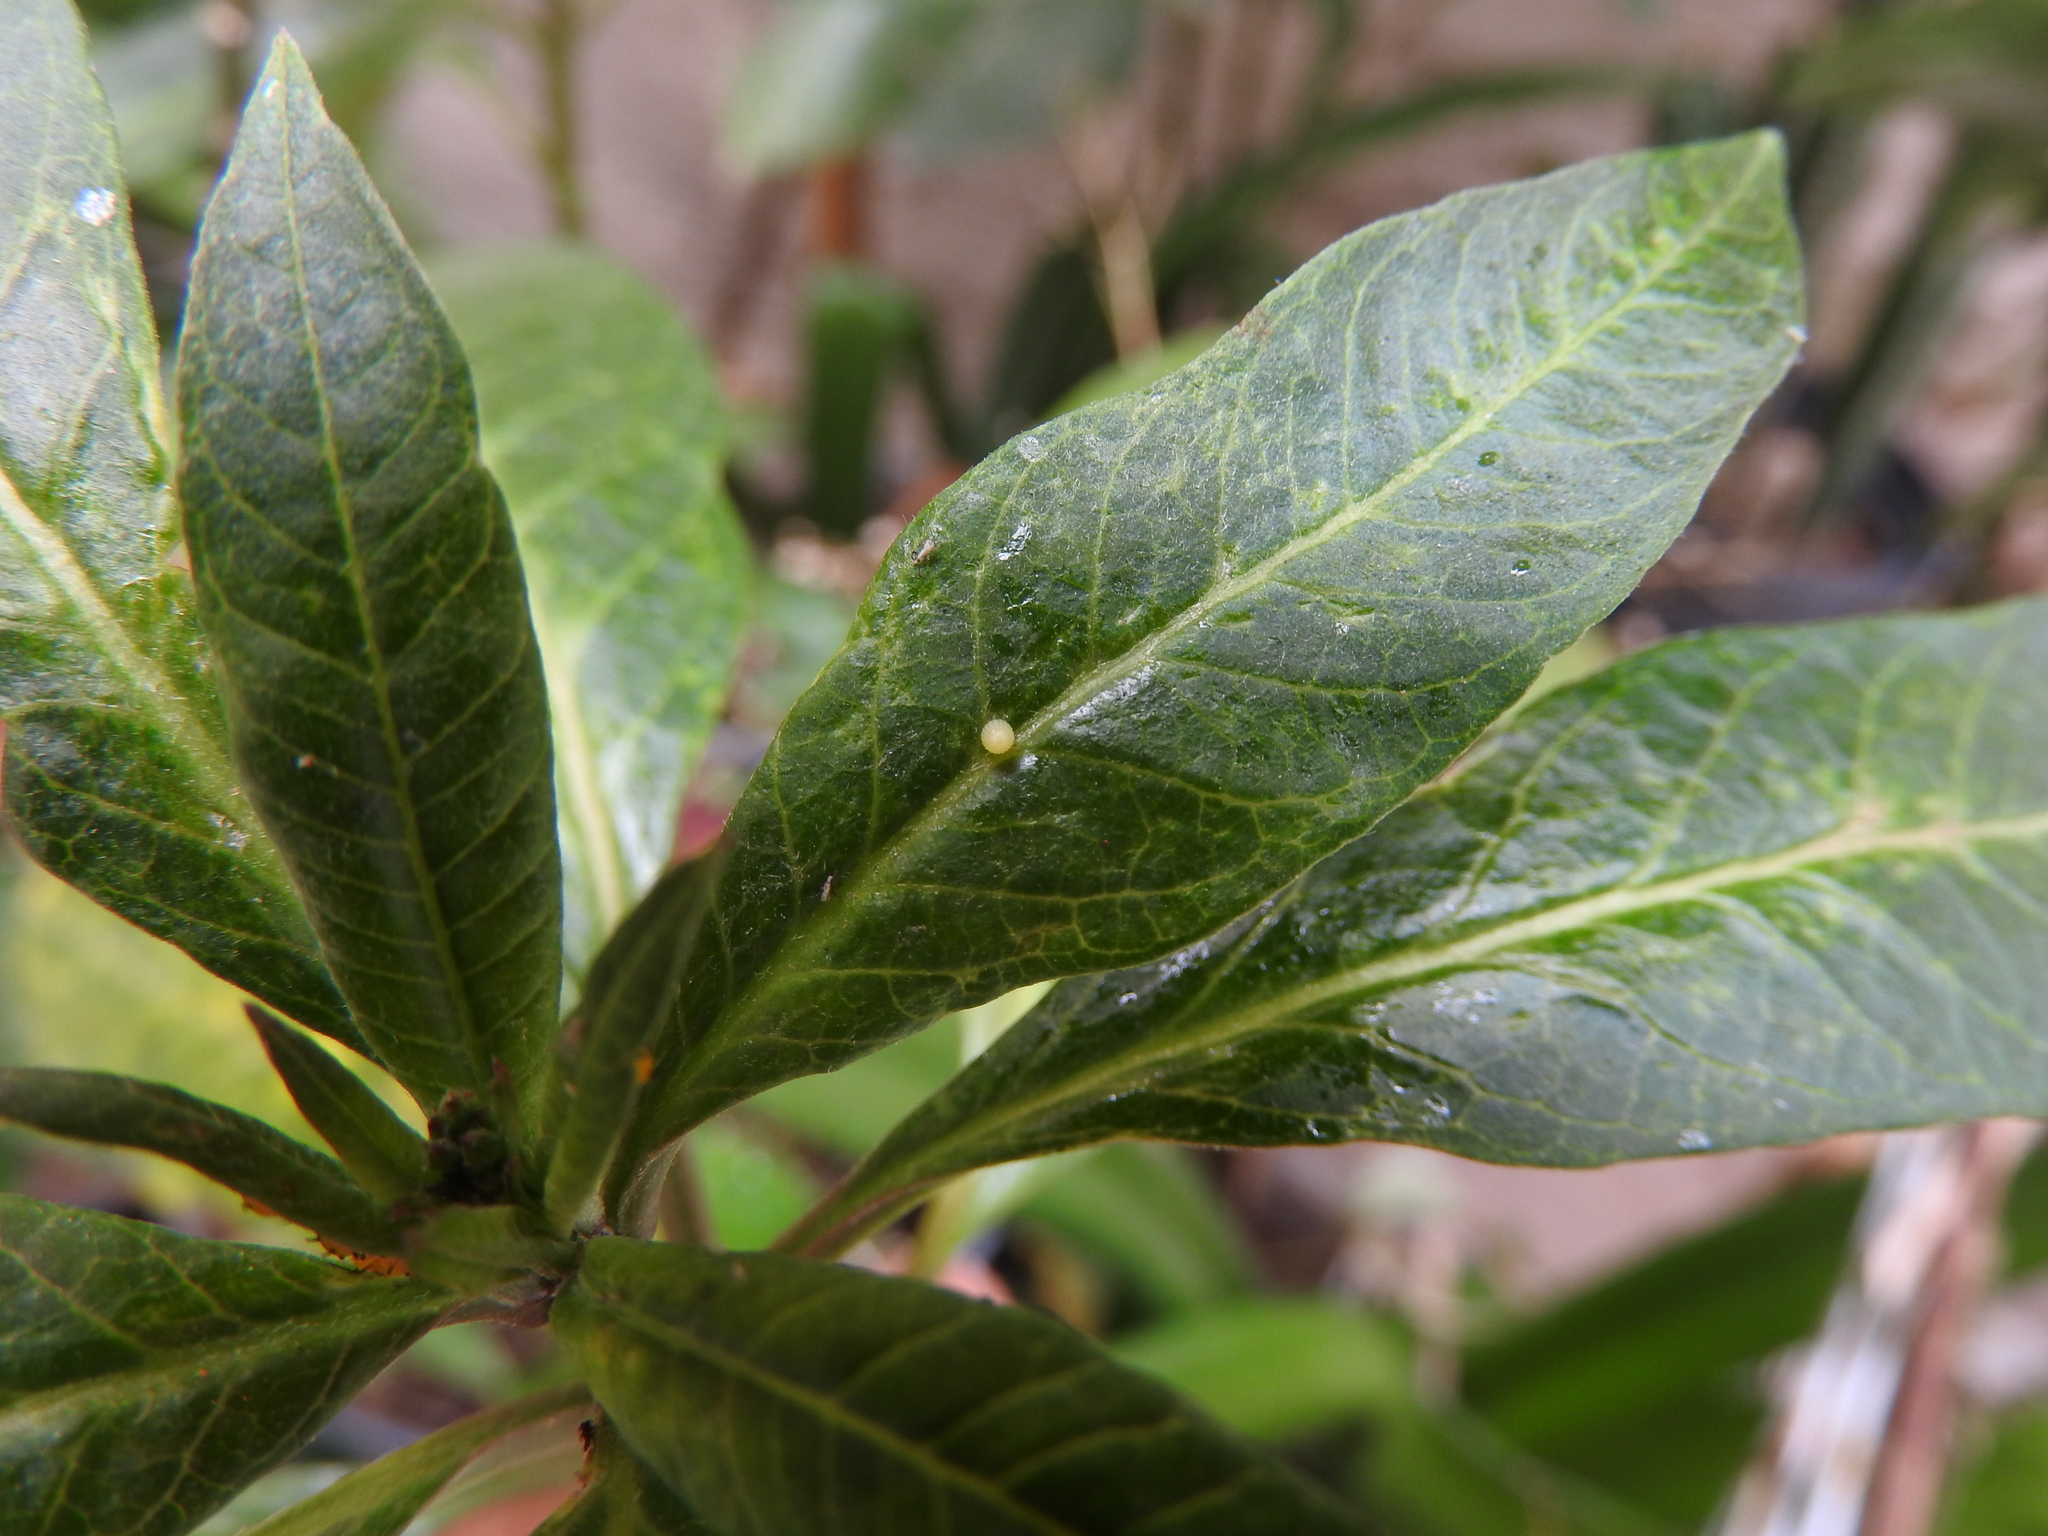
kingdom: Animalia
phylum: Arthropoda
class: Insecta
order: Lepidoptera
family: Nymphalidae
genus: Danaus
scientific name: Danaus plexippus
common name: Monarch
